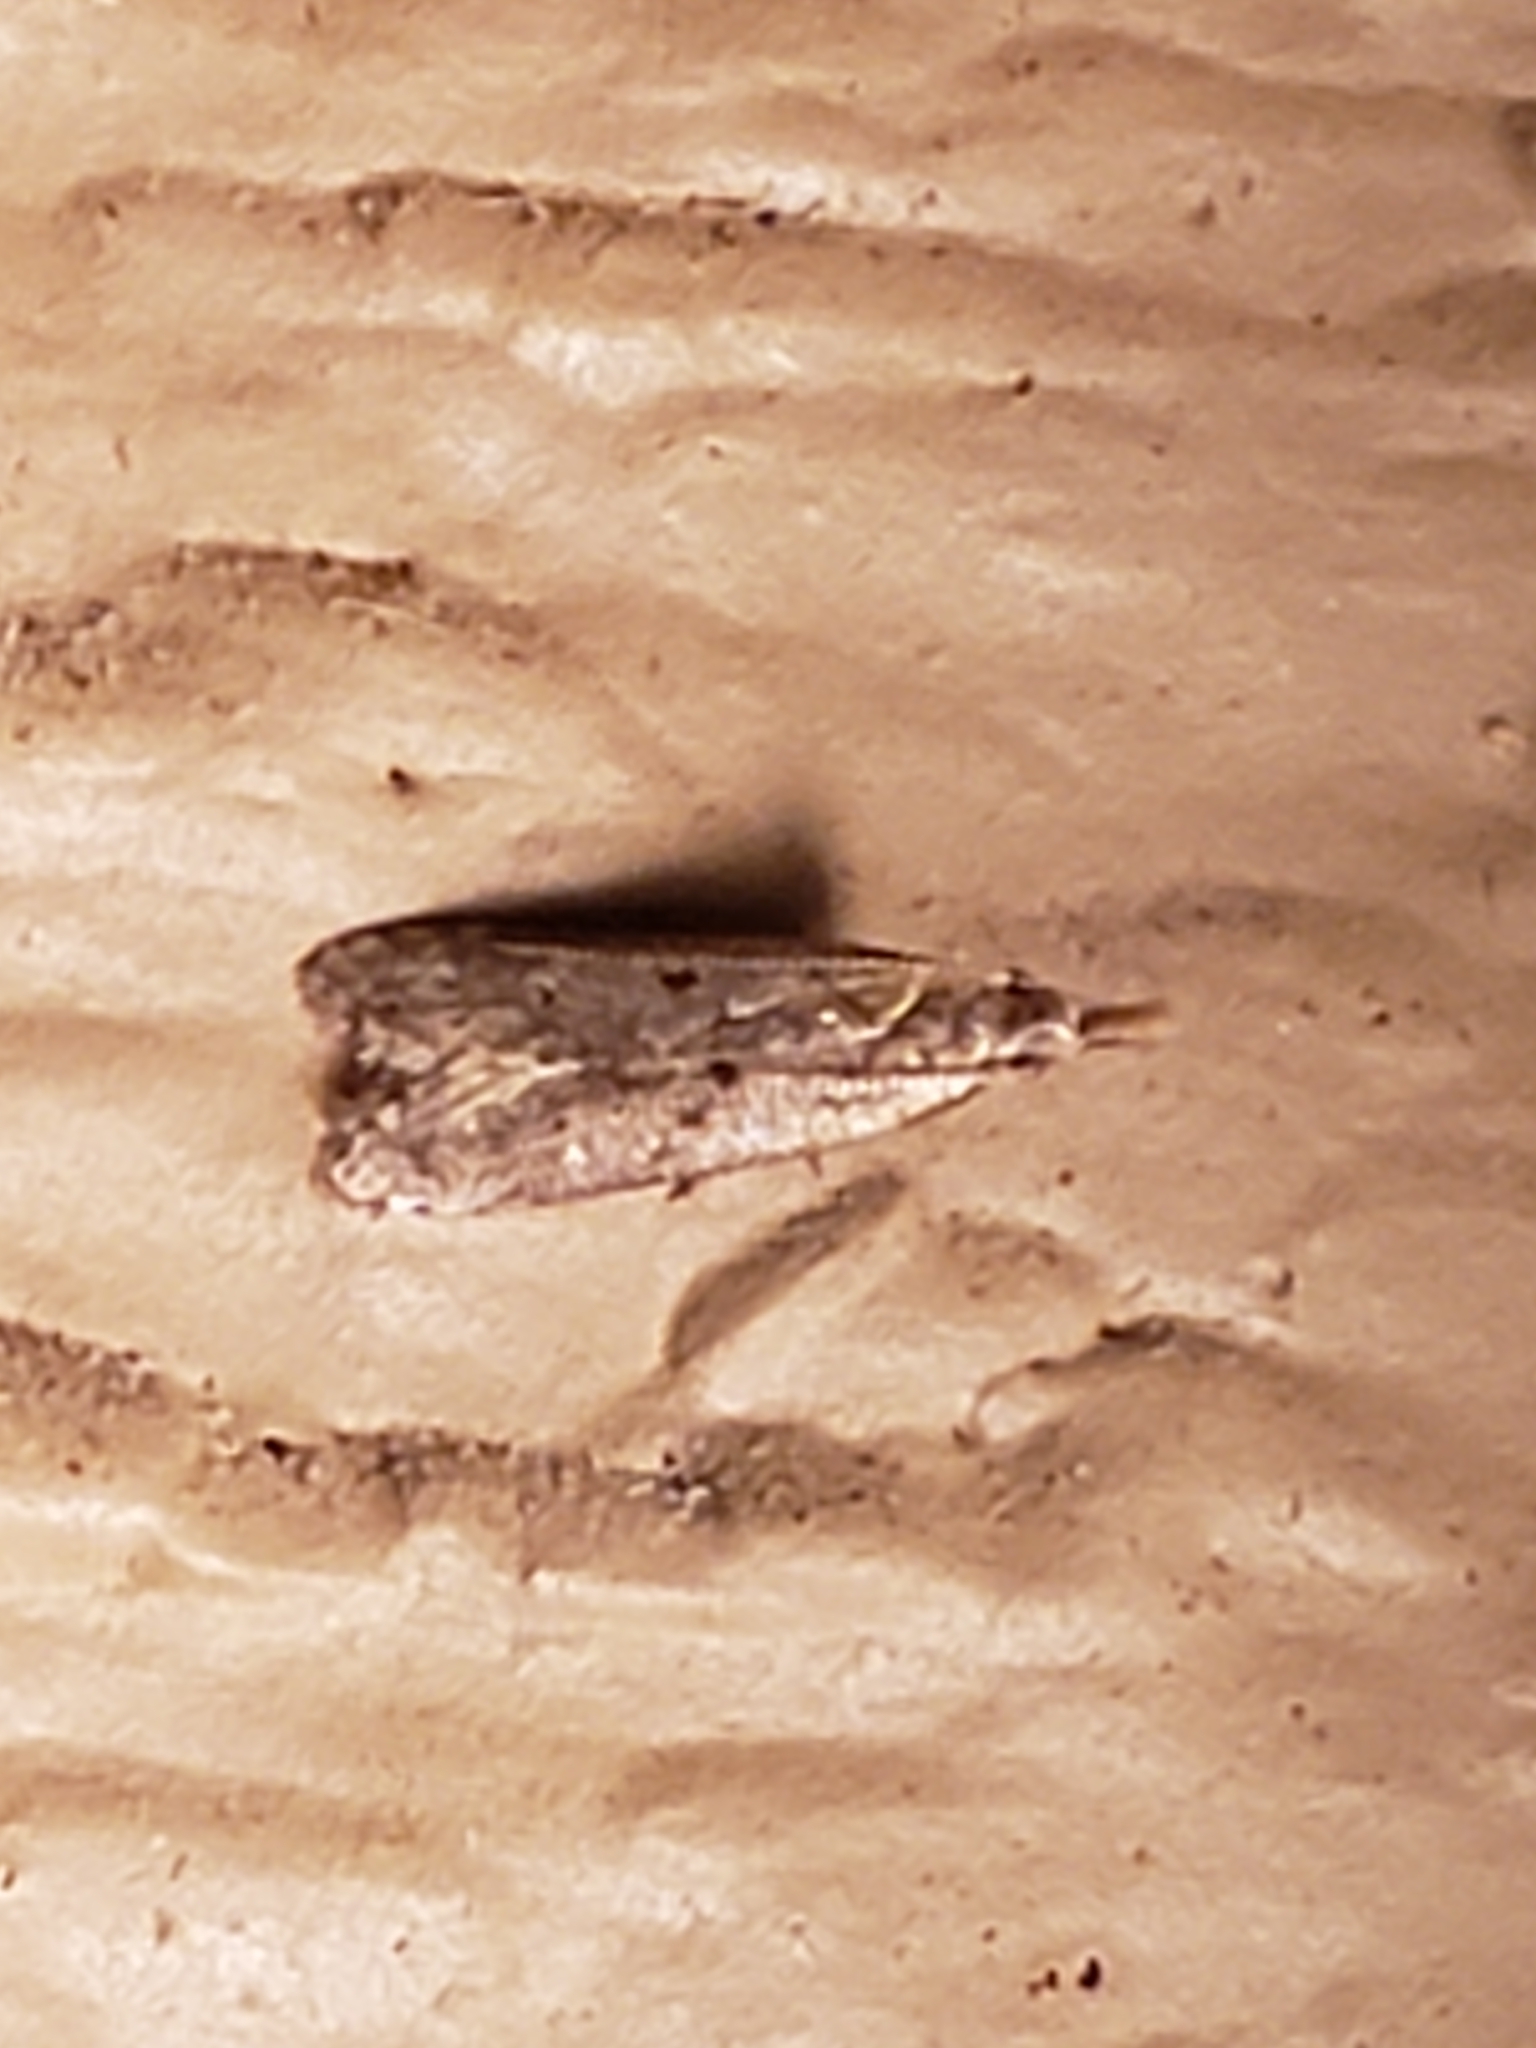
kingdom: Animalia
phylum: Arthropoda
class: Insecta
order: Lepidoptera
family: Gelechiidae
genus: Dichomeris
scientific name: Dichomeris punctipennella
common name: Many-spotted dichomeris moth
